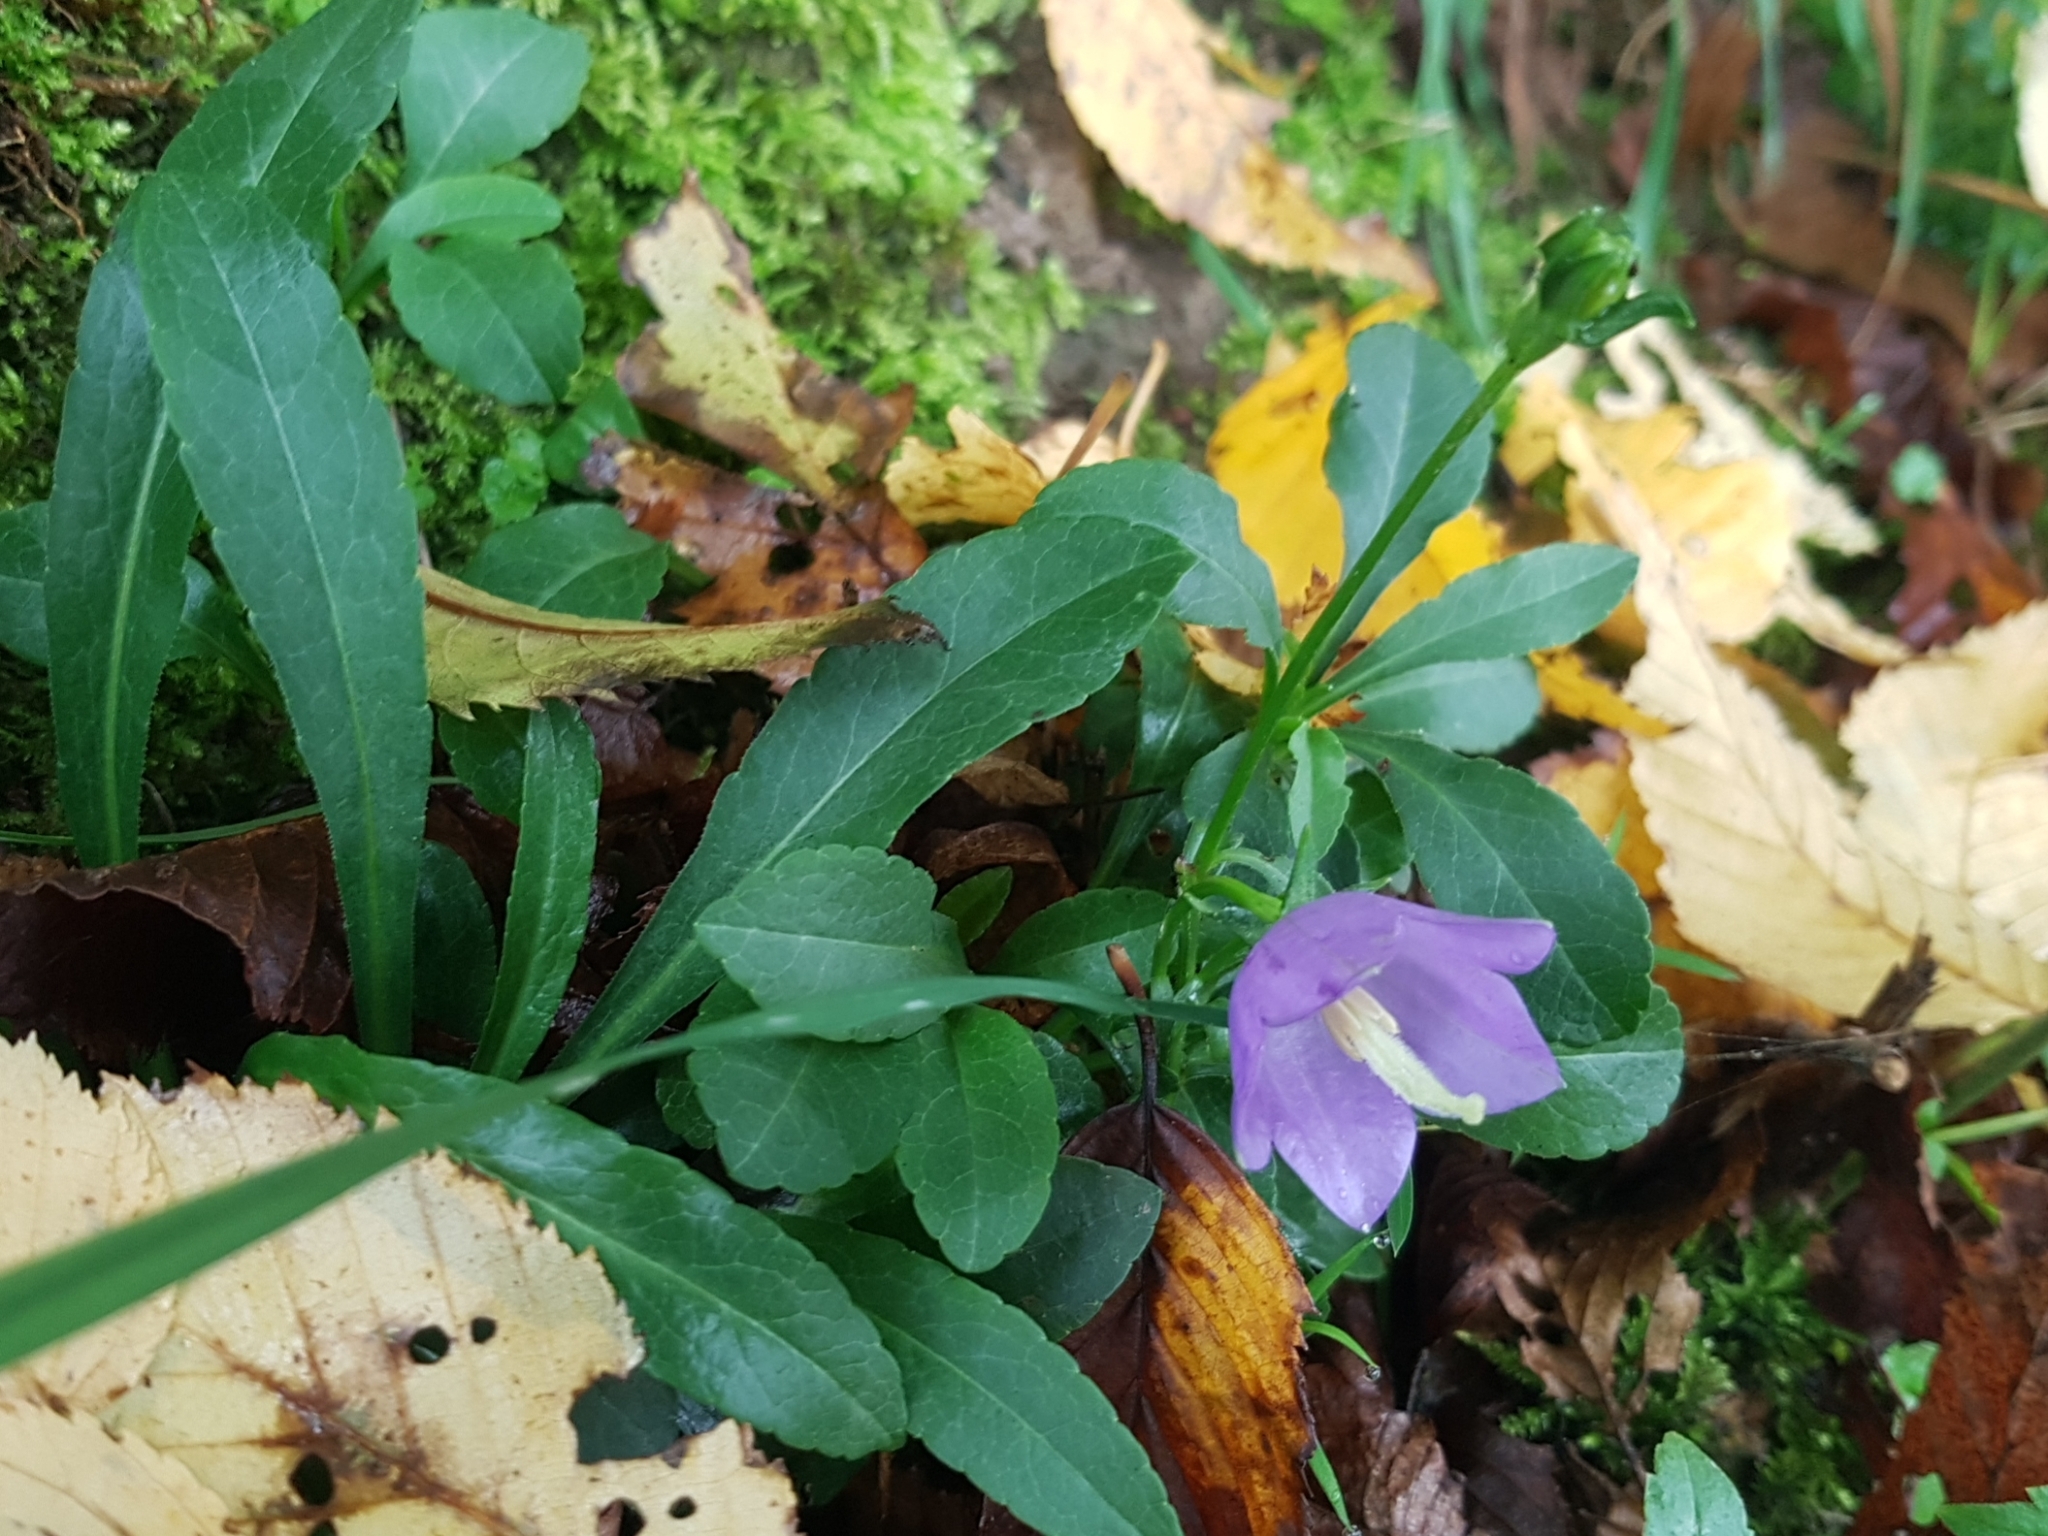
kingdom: Plantae
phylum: Tracheophyta
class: Magnoliopsida
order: Asterales
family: Campanulaceae
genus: Campanula
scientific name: Campanula persicifolia
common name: Peach-leaved bellflower
